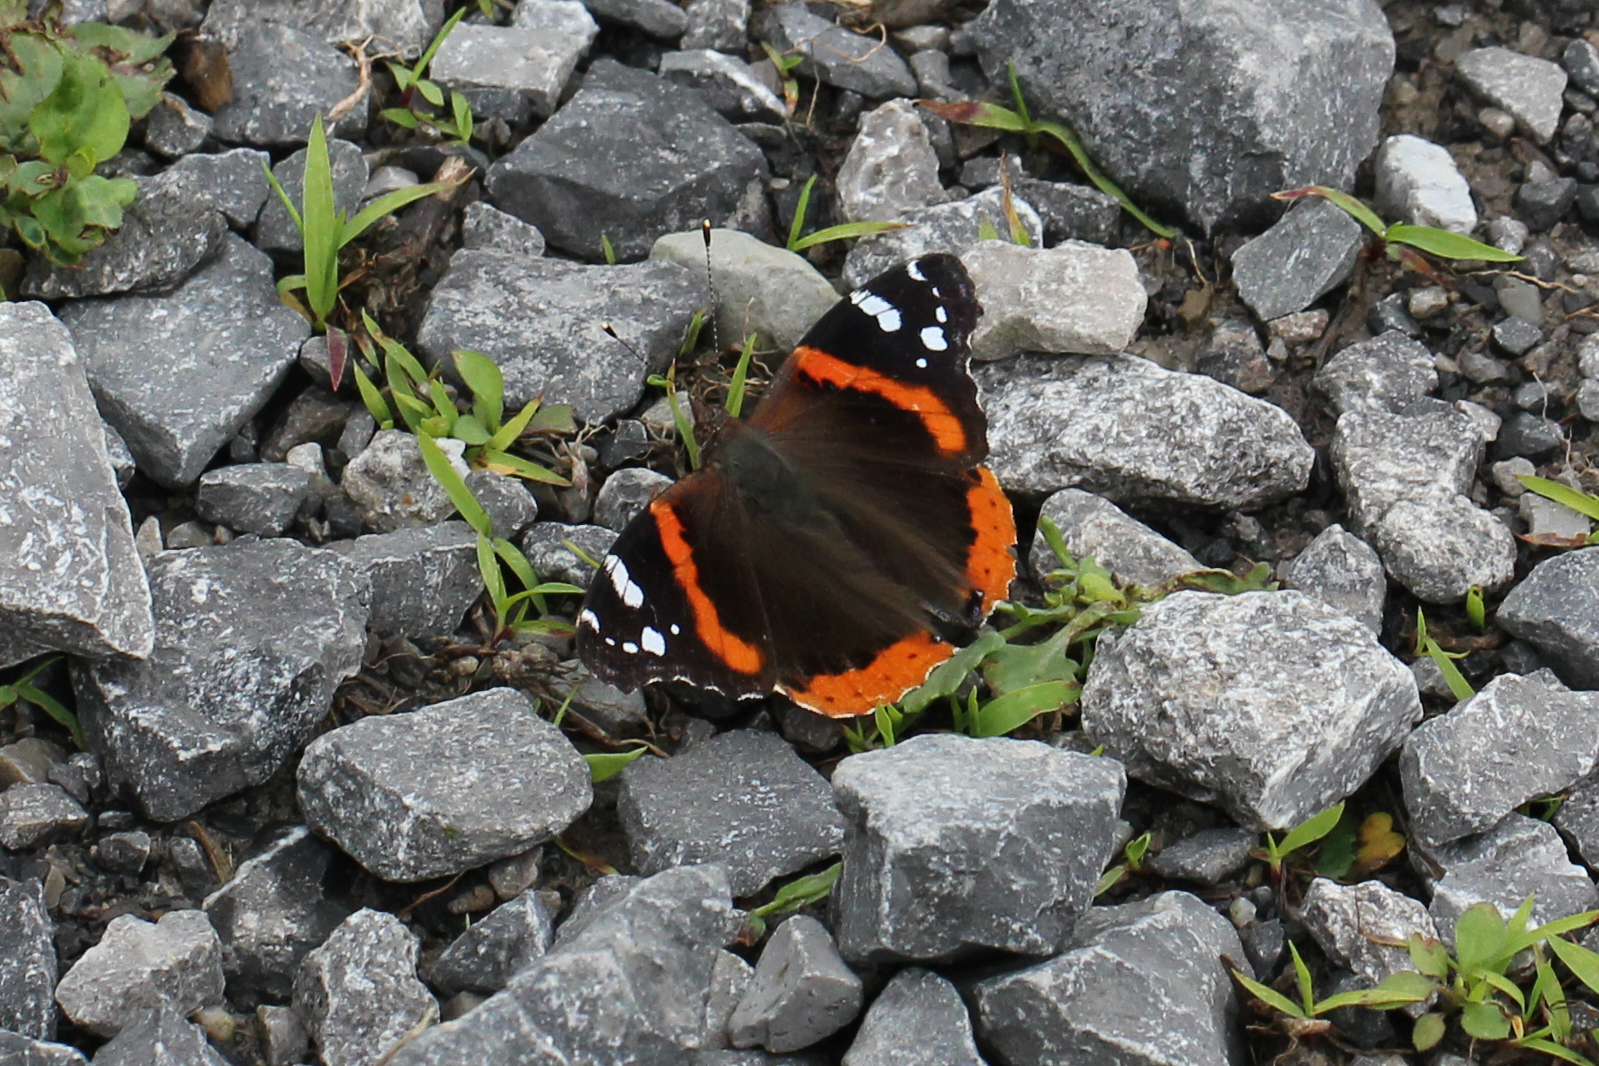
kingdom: Animalia
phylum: Arthropoda
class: Insecta
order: Lepidoptera
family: Nymphalidae
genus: Vanessa
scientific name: Vanessa atalanta
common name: Red admiral
